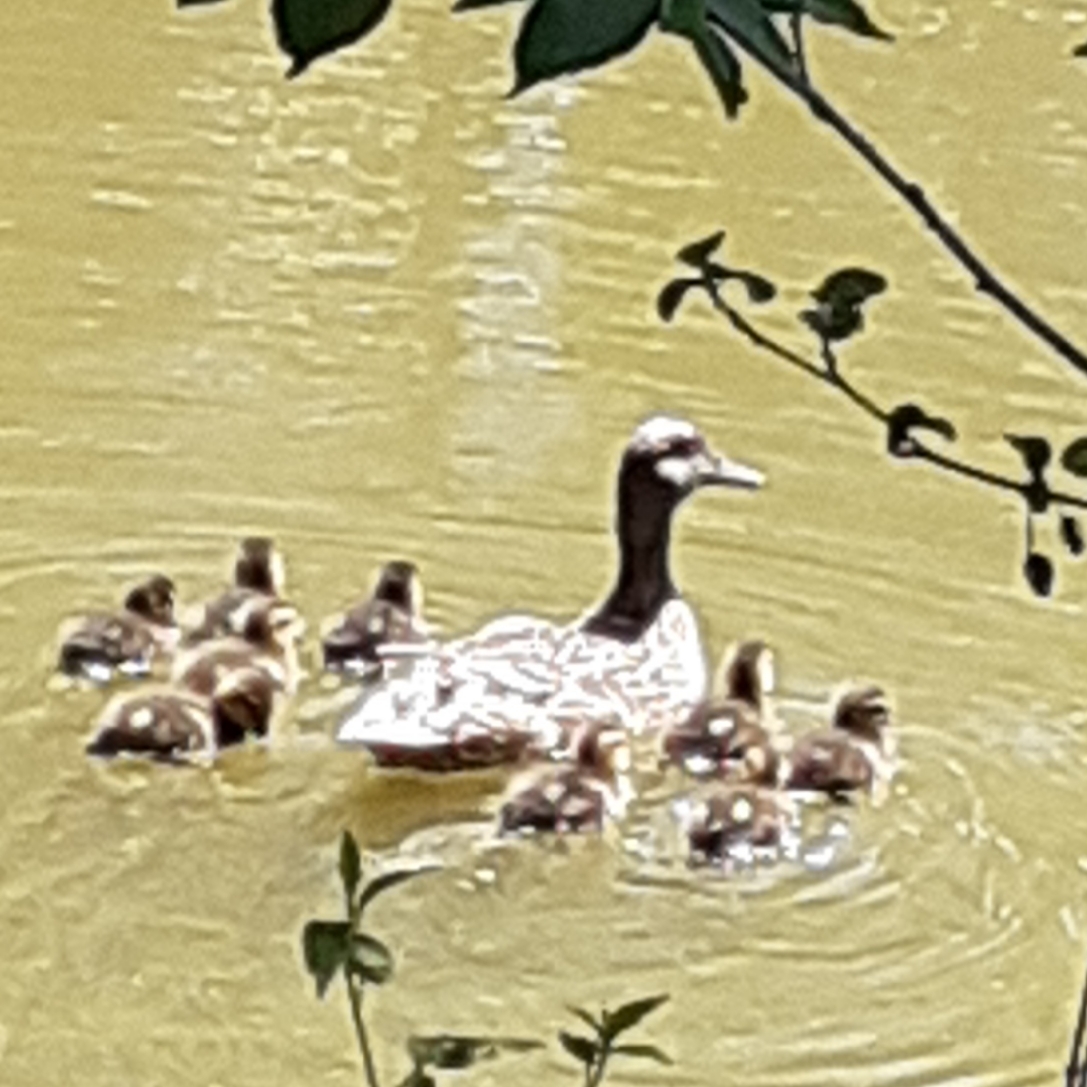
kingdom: Animalia
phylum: Chordata
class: Aves
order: Anseriformes
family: Anatidae
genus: Anas
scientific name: Anas platyrhynchos
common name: Mallard
